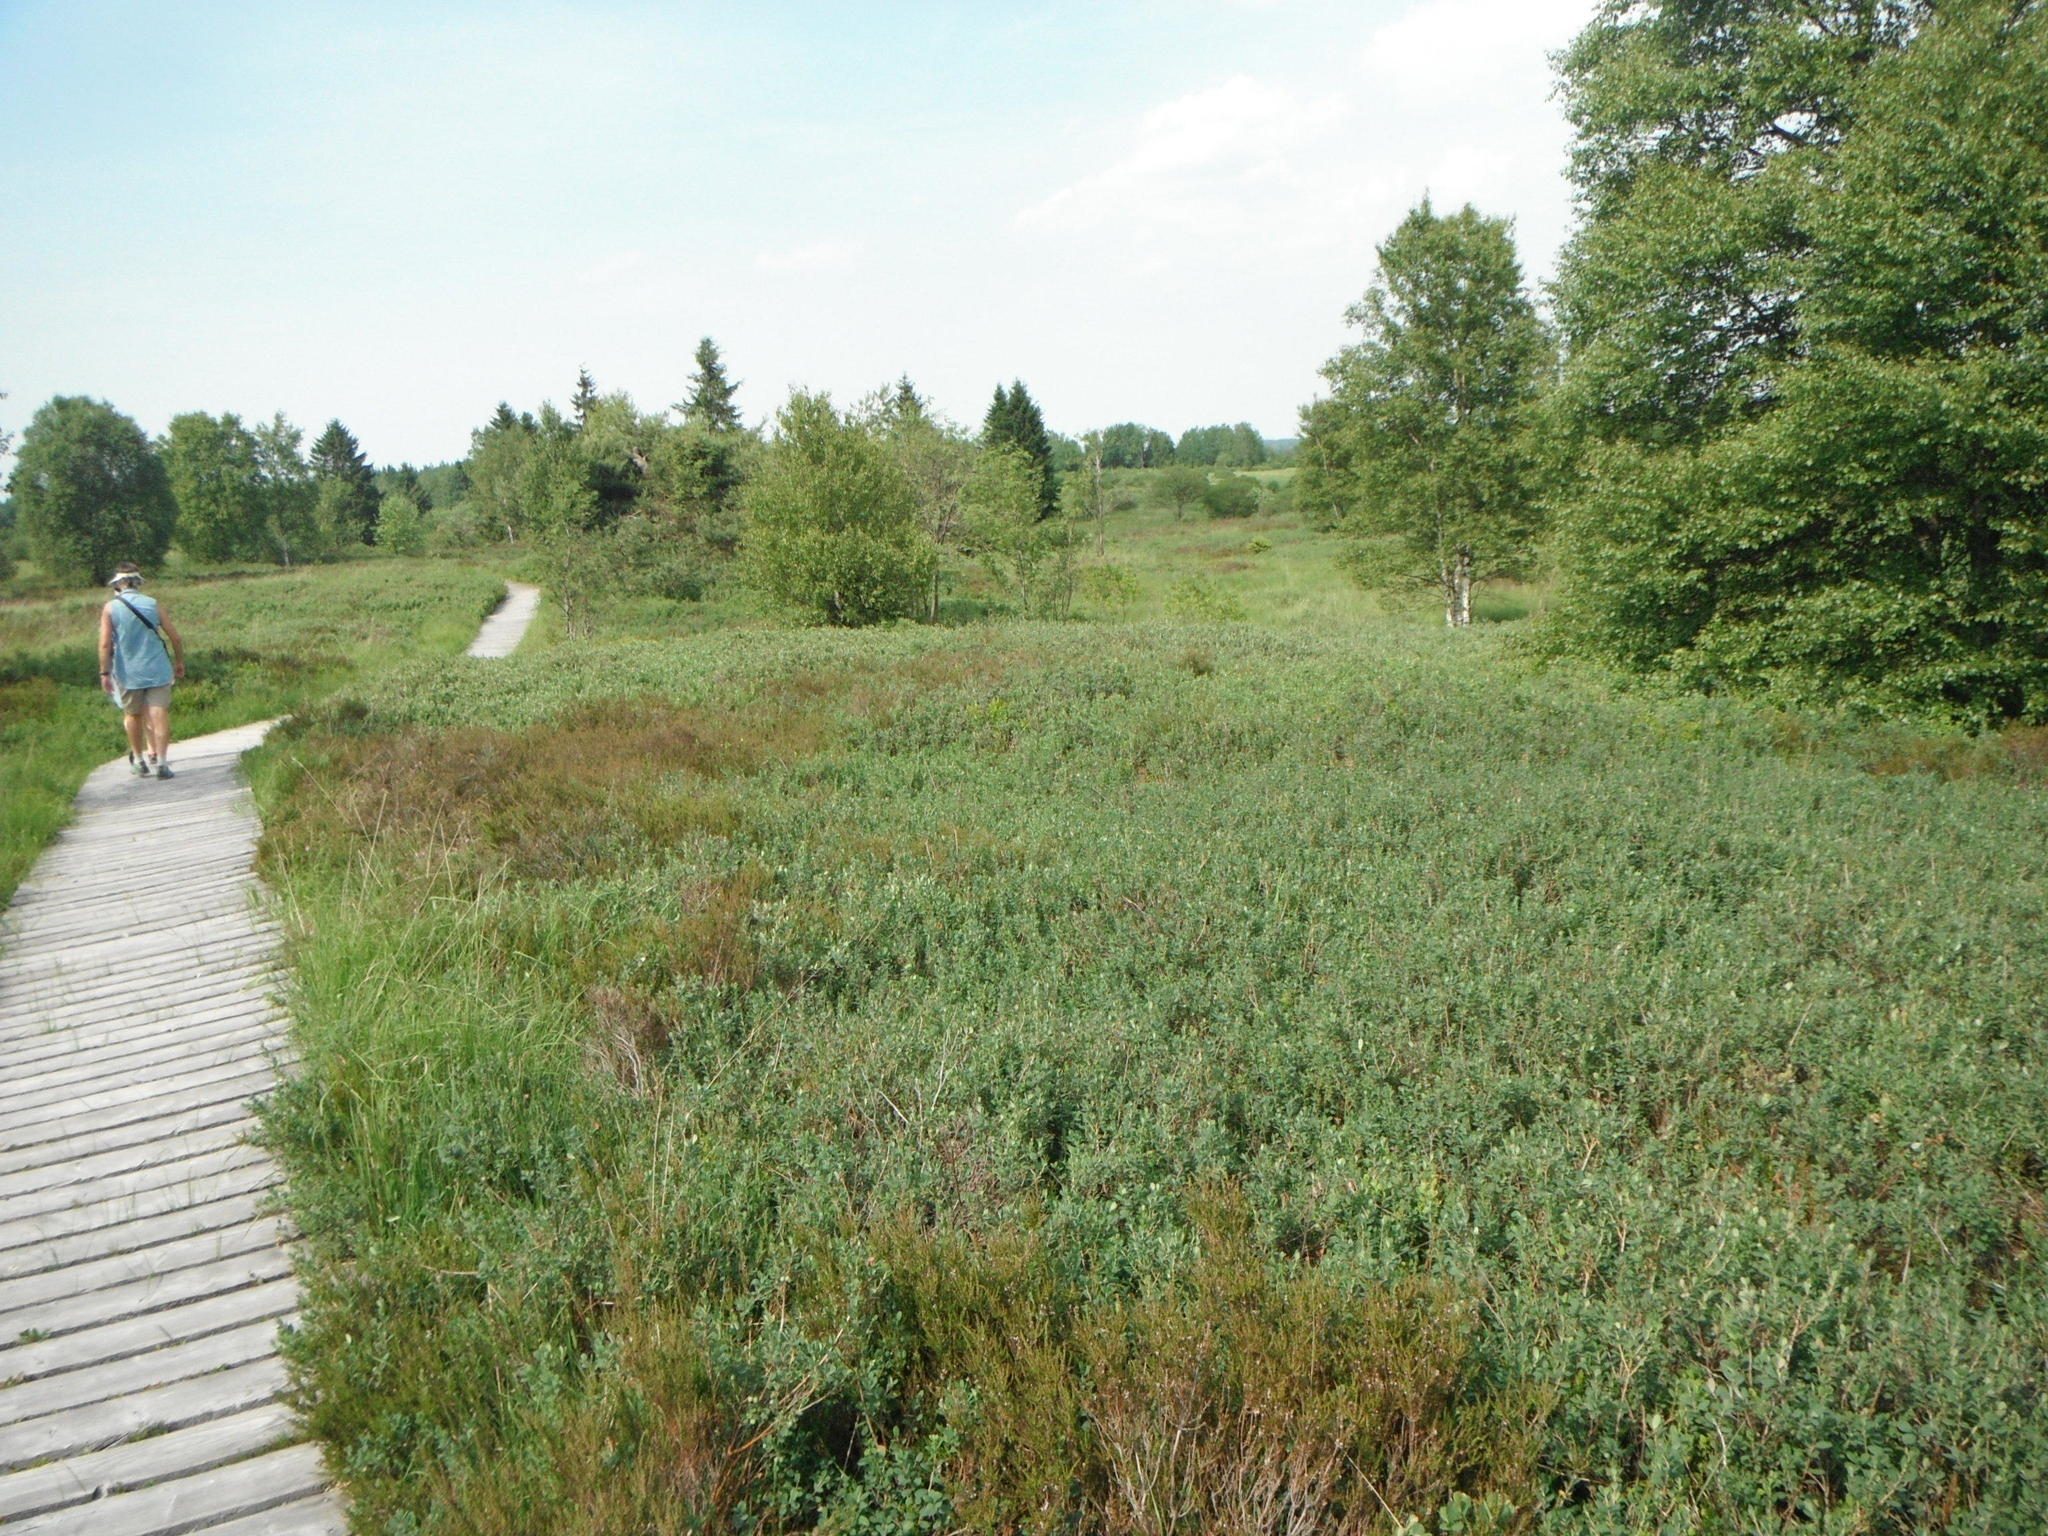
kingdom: Plantae
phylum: Tracheophyta
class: Magnoliopsida
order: Ericales
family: Ericaceae
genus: Vaccinium
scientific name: Vaccinium uliginosum
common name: Bog bilberry
